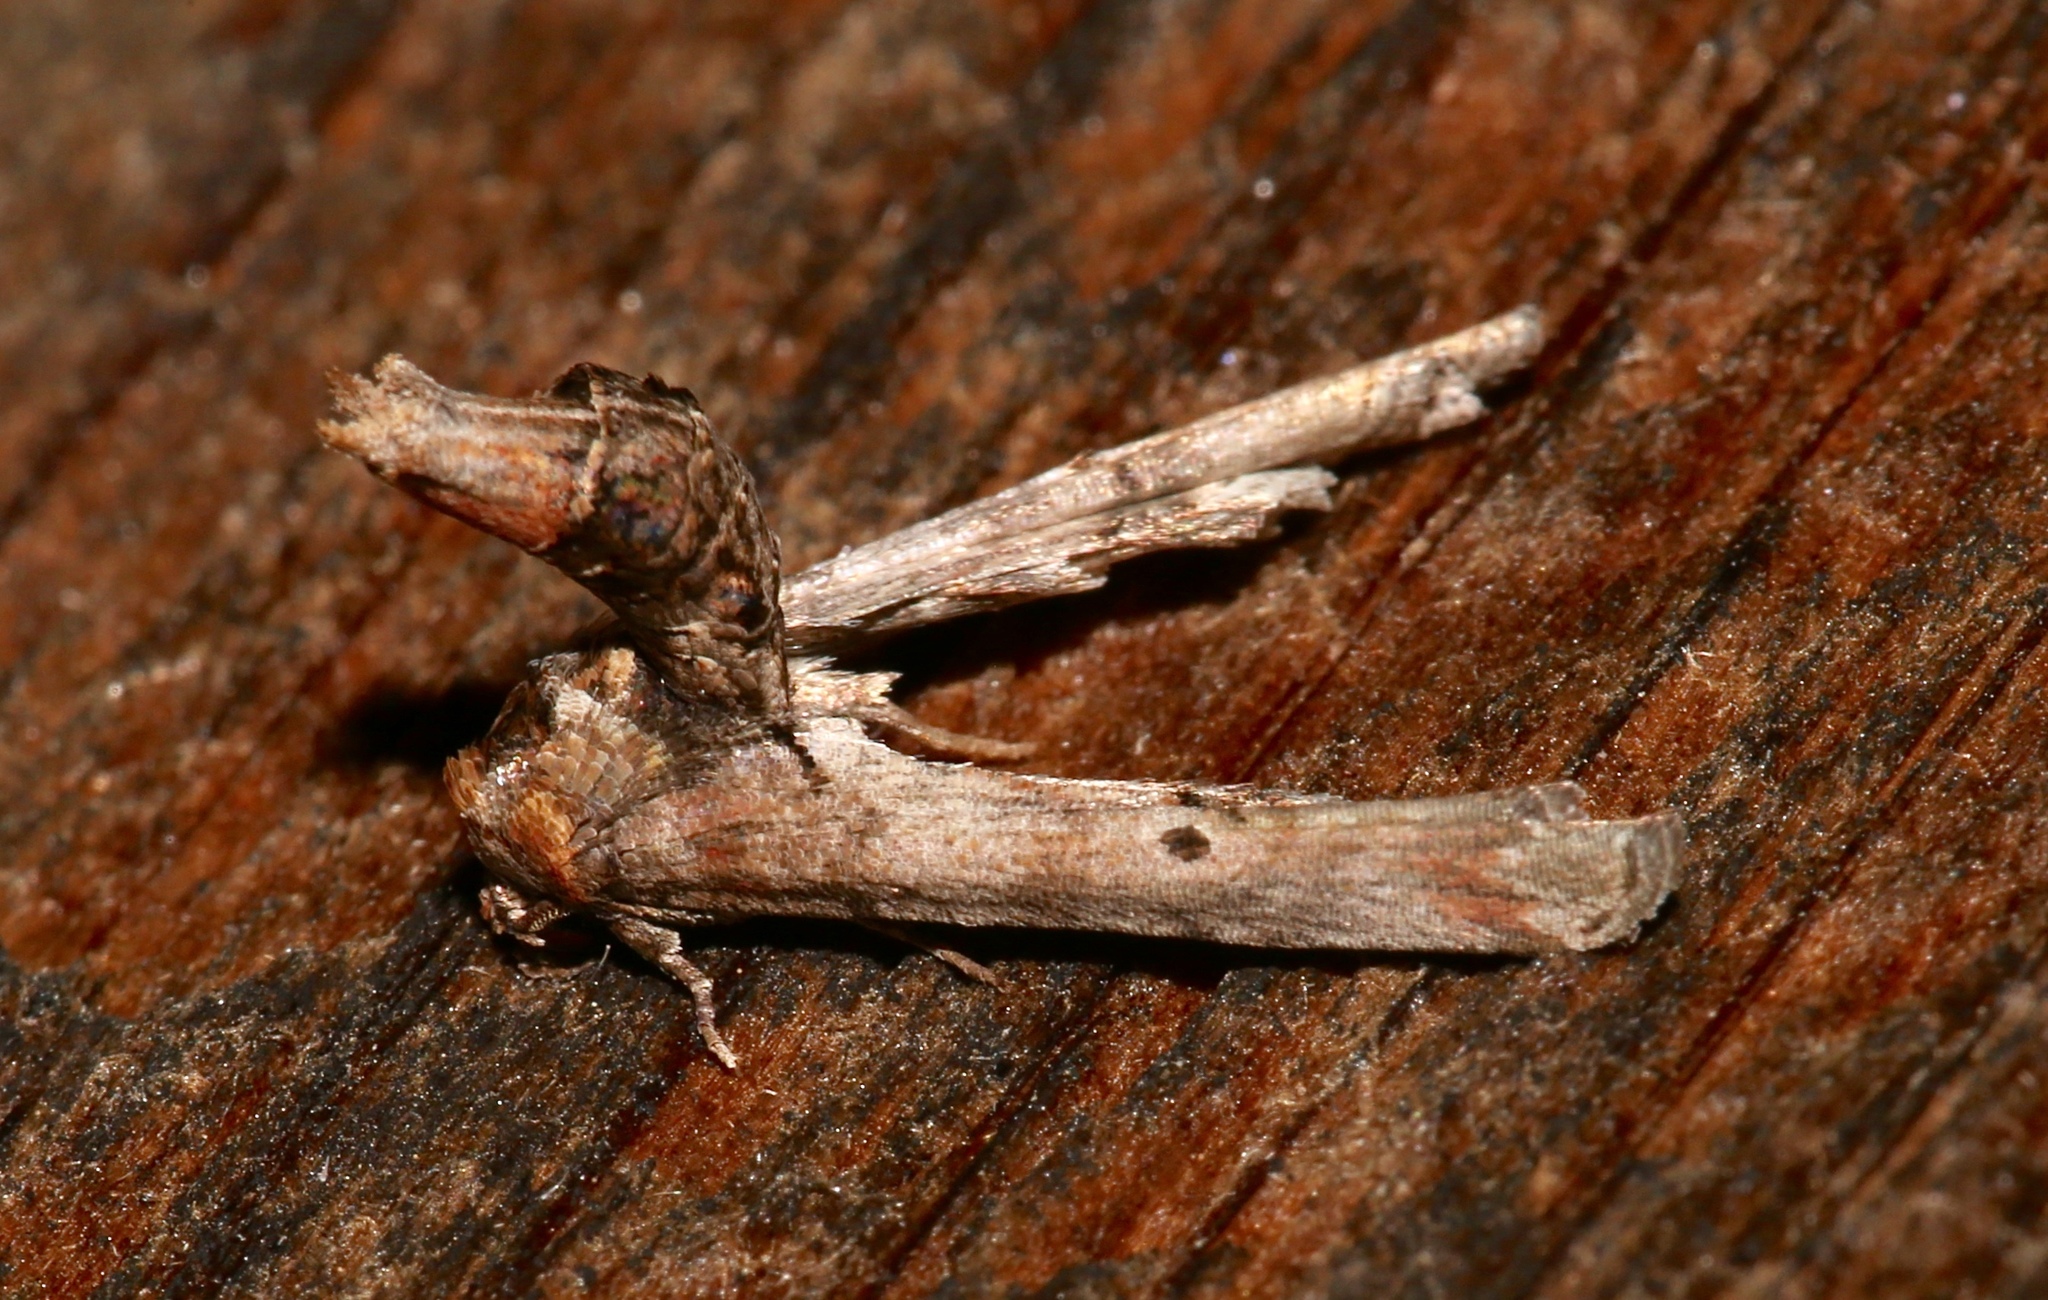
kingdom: Animalia
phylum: Arthropoda
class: Insecta
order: Lepidoptera
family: Euteliidae
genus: Marathyssa
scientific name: Marathyssa inficita
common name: Dark marathyssa moth
